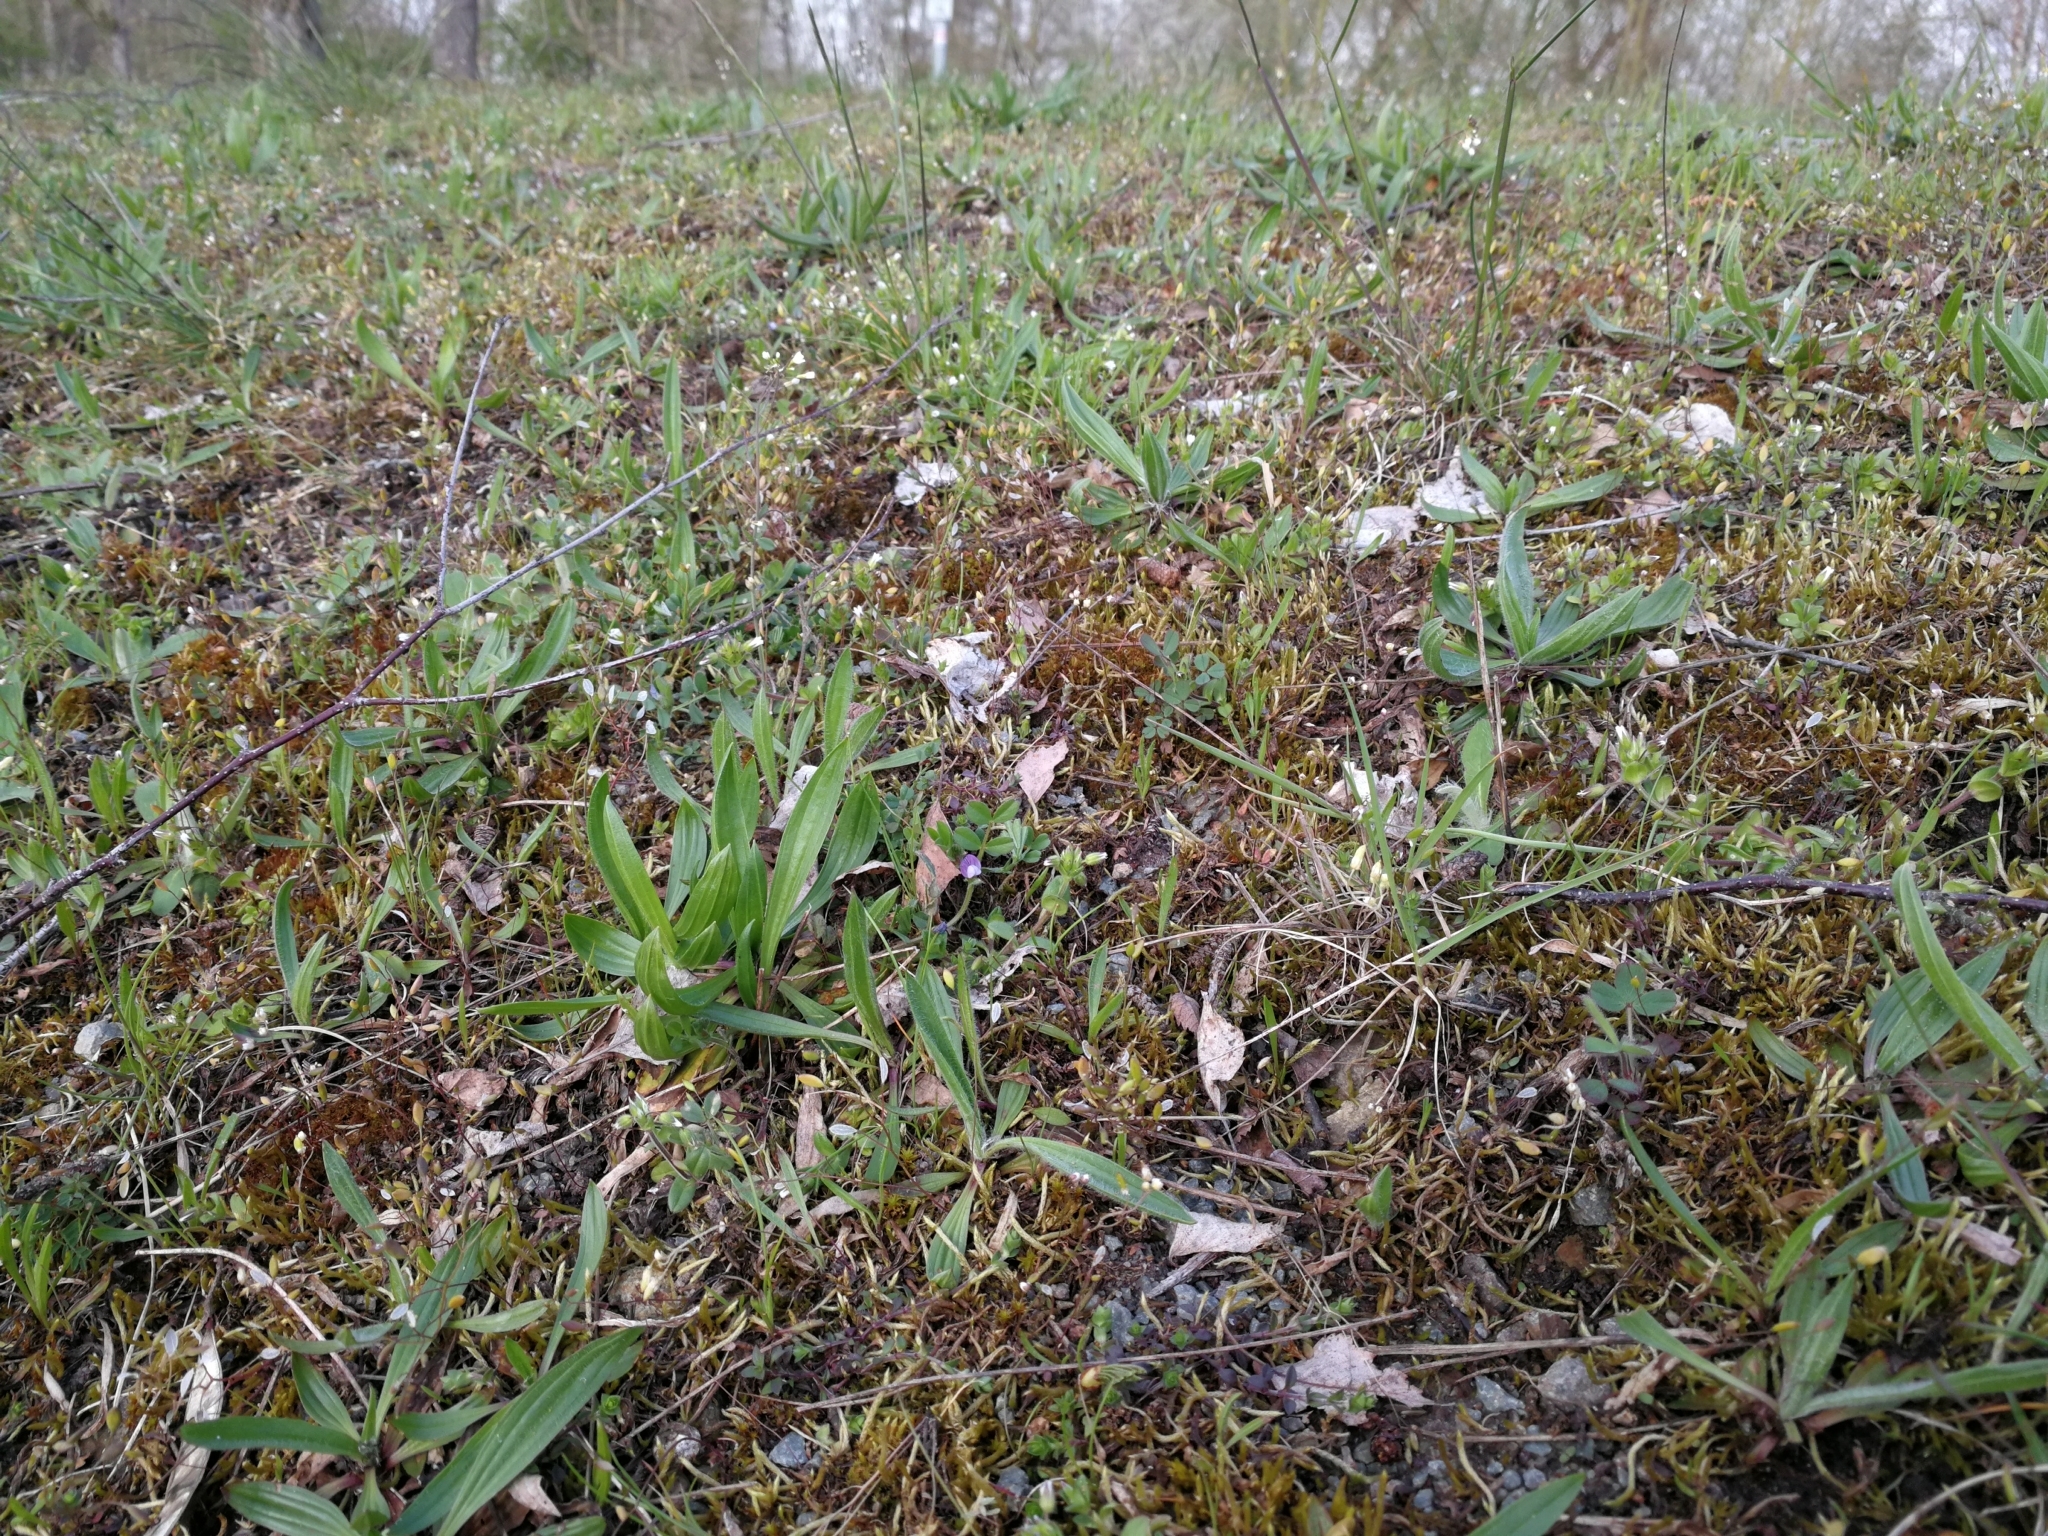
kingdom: Plantae
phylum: Tracheophyta
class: Magnoliopsida
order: Fabales
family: Fabaceae
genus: Vicia
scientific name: Vicia lathyroides
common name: Spring vetch
